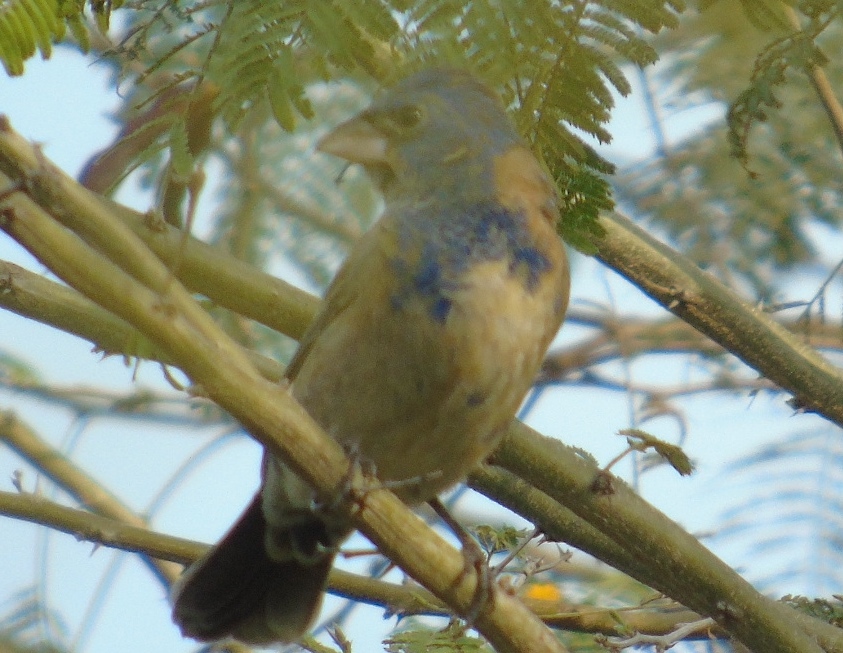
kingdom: Animalia
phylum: Chordata
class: Aves
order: Passeriformes
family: Cardinalidae
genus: Passerina
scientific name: Passerina caerulea
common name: Blue grosbeak
